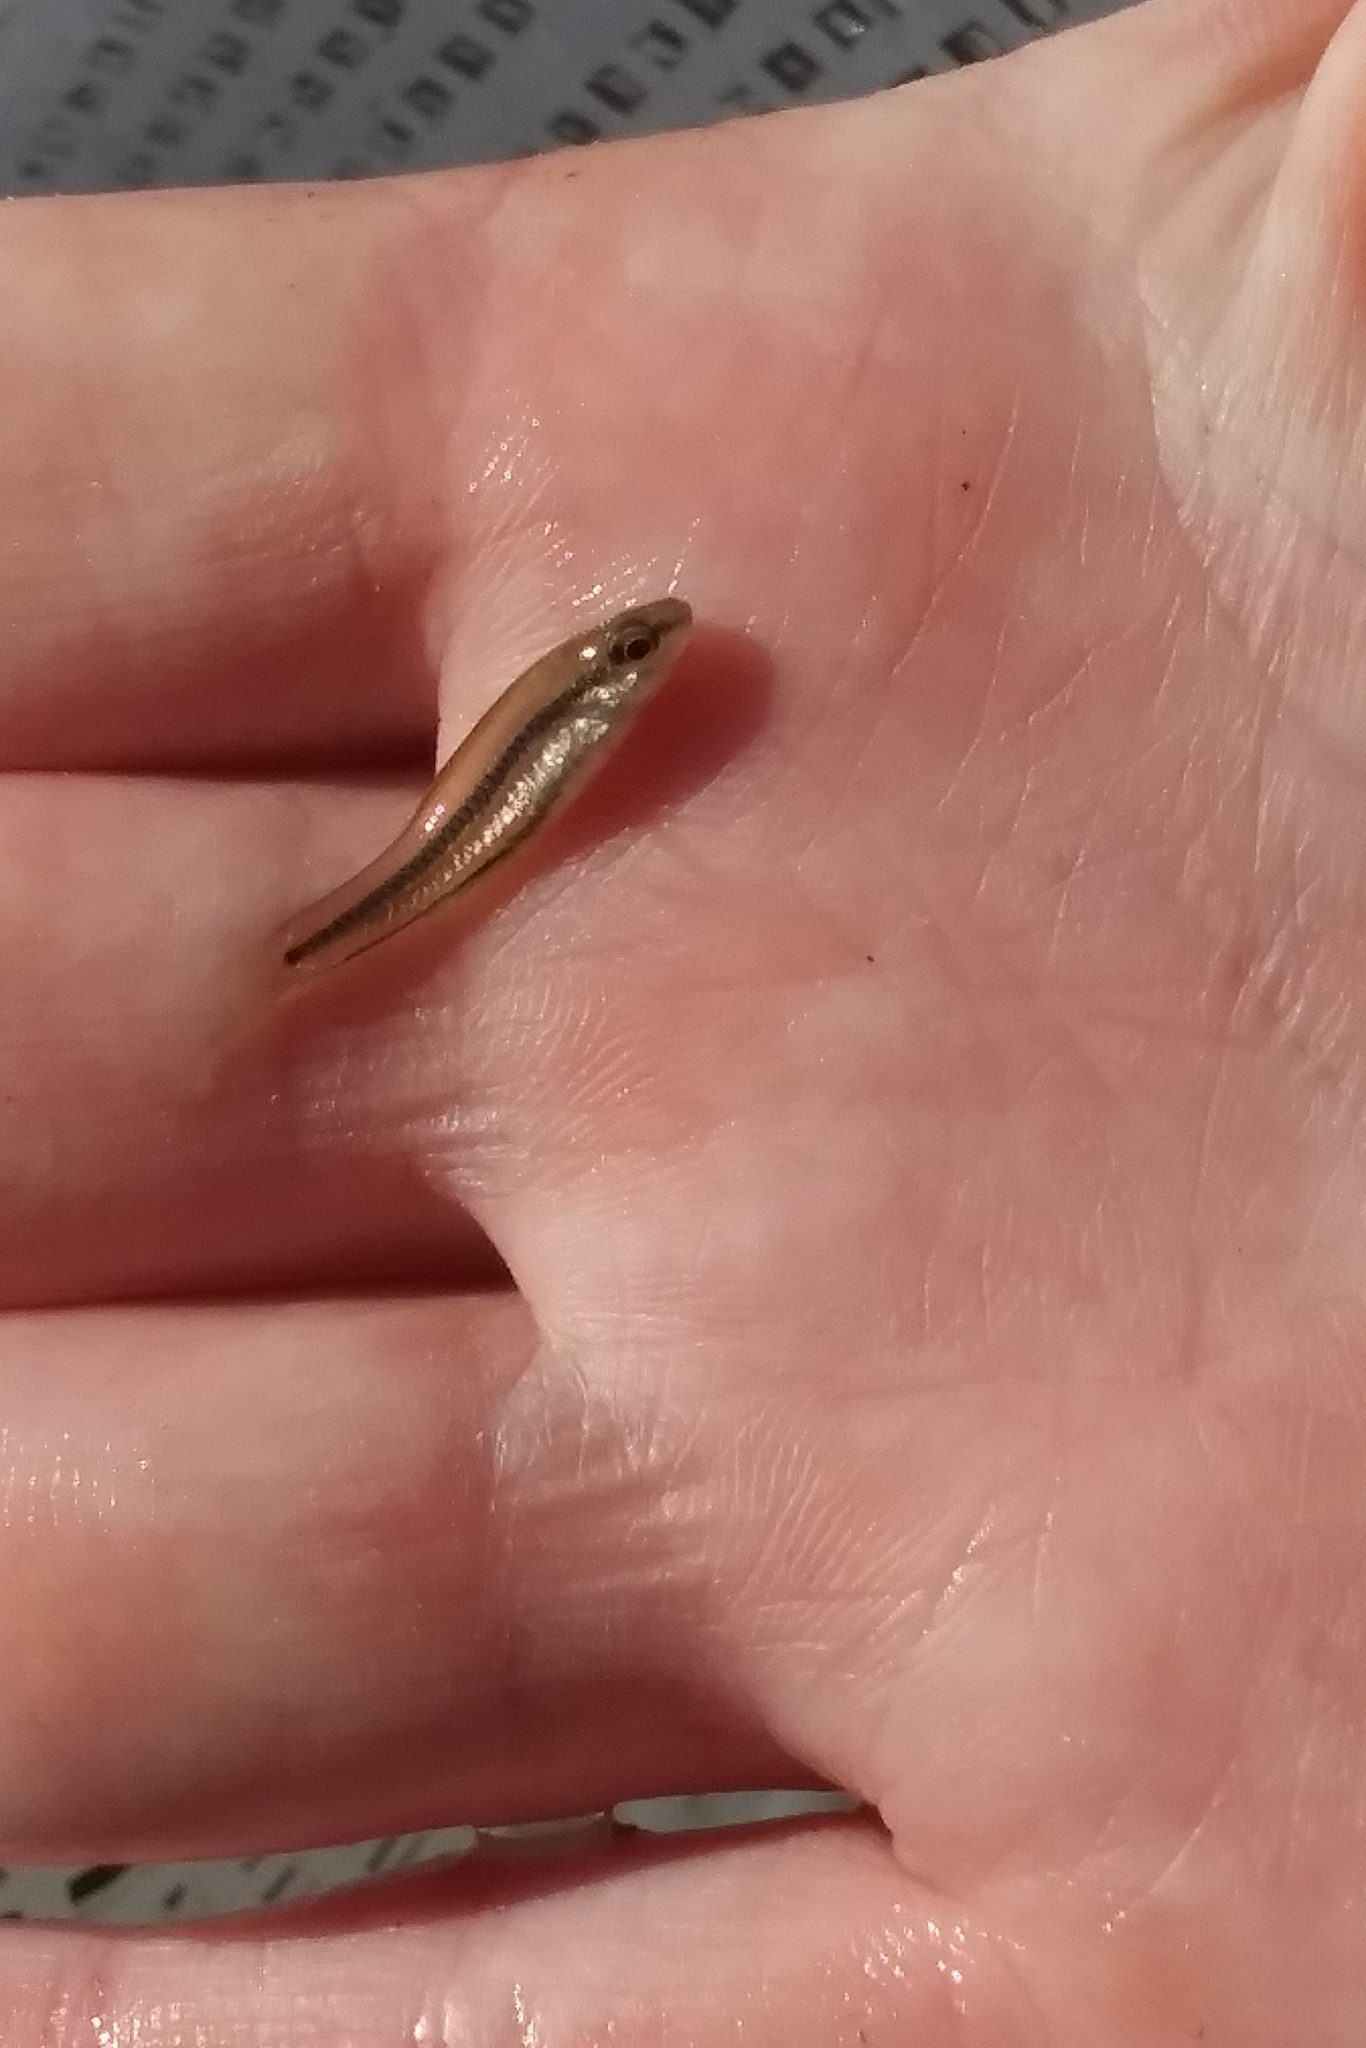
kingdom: Animalia
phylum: Chordata
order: Cyprinodontiformes
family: Fundulidae
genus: Lucania
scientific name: Lucania goodei
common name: Bluefin killifish
